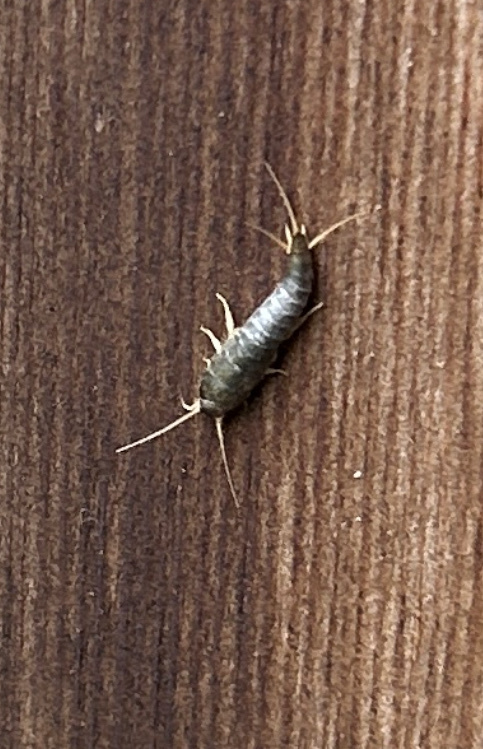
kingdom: Animalia
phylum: Arthropoda
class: Insecta
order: Zygentoma
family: Lepismatidae
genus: Lepisma
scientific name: Lepisma saccharinum
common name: Silverfish
